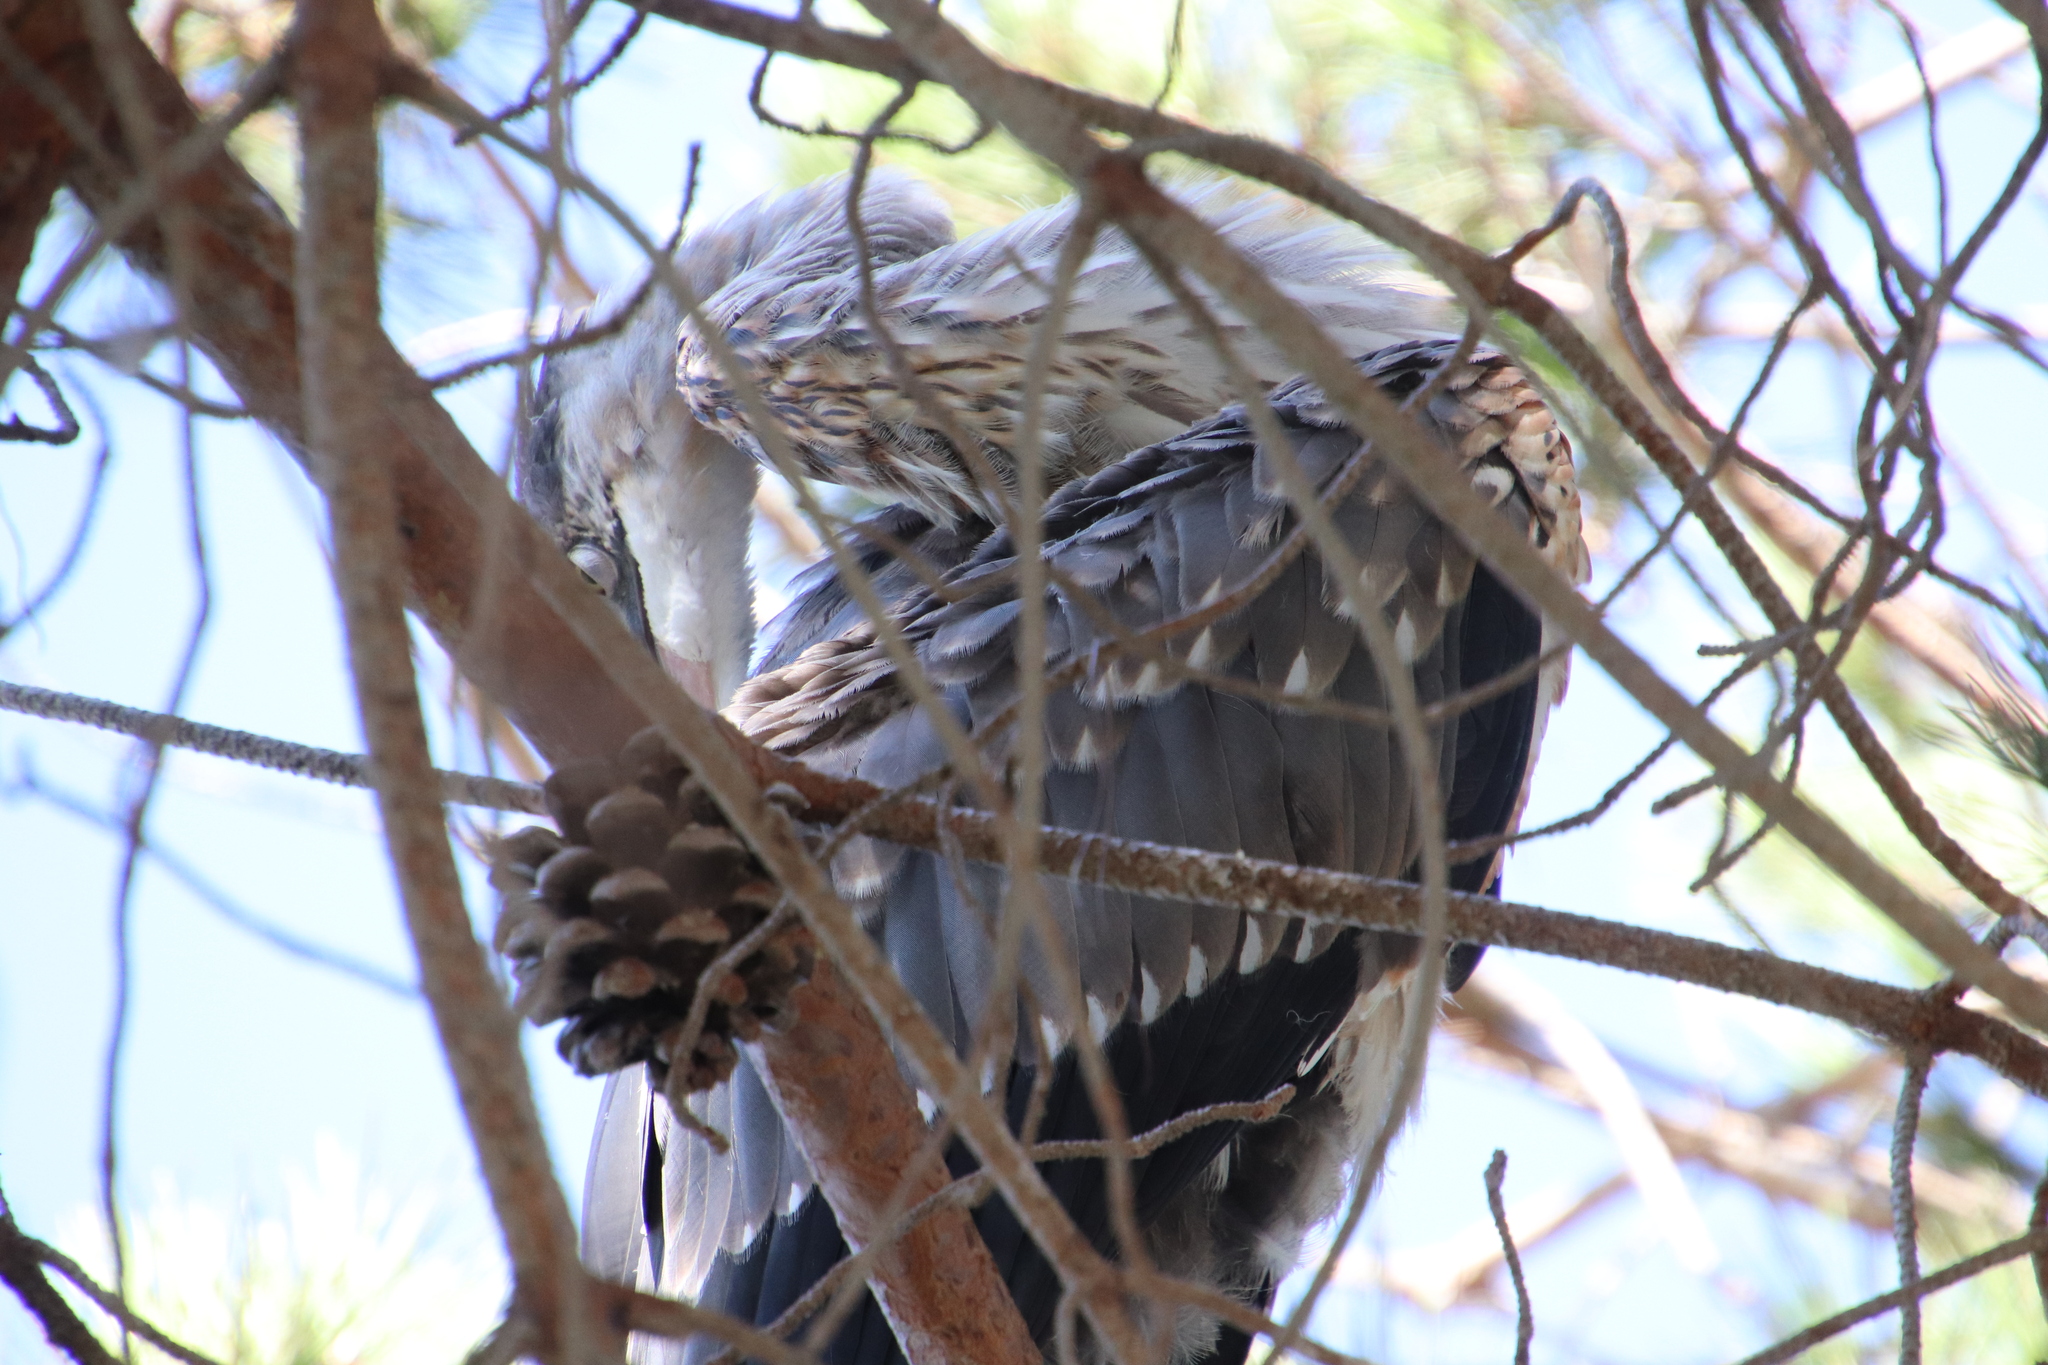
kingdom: Animalia
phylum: Chordata
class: Aves
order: Pelecaniformes
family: Ardeidae
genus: Ardea
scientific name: Ardea herodias
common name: Great blue heron
